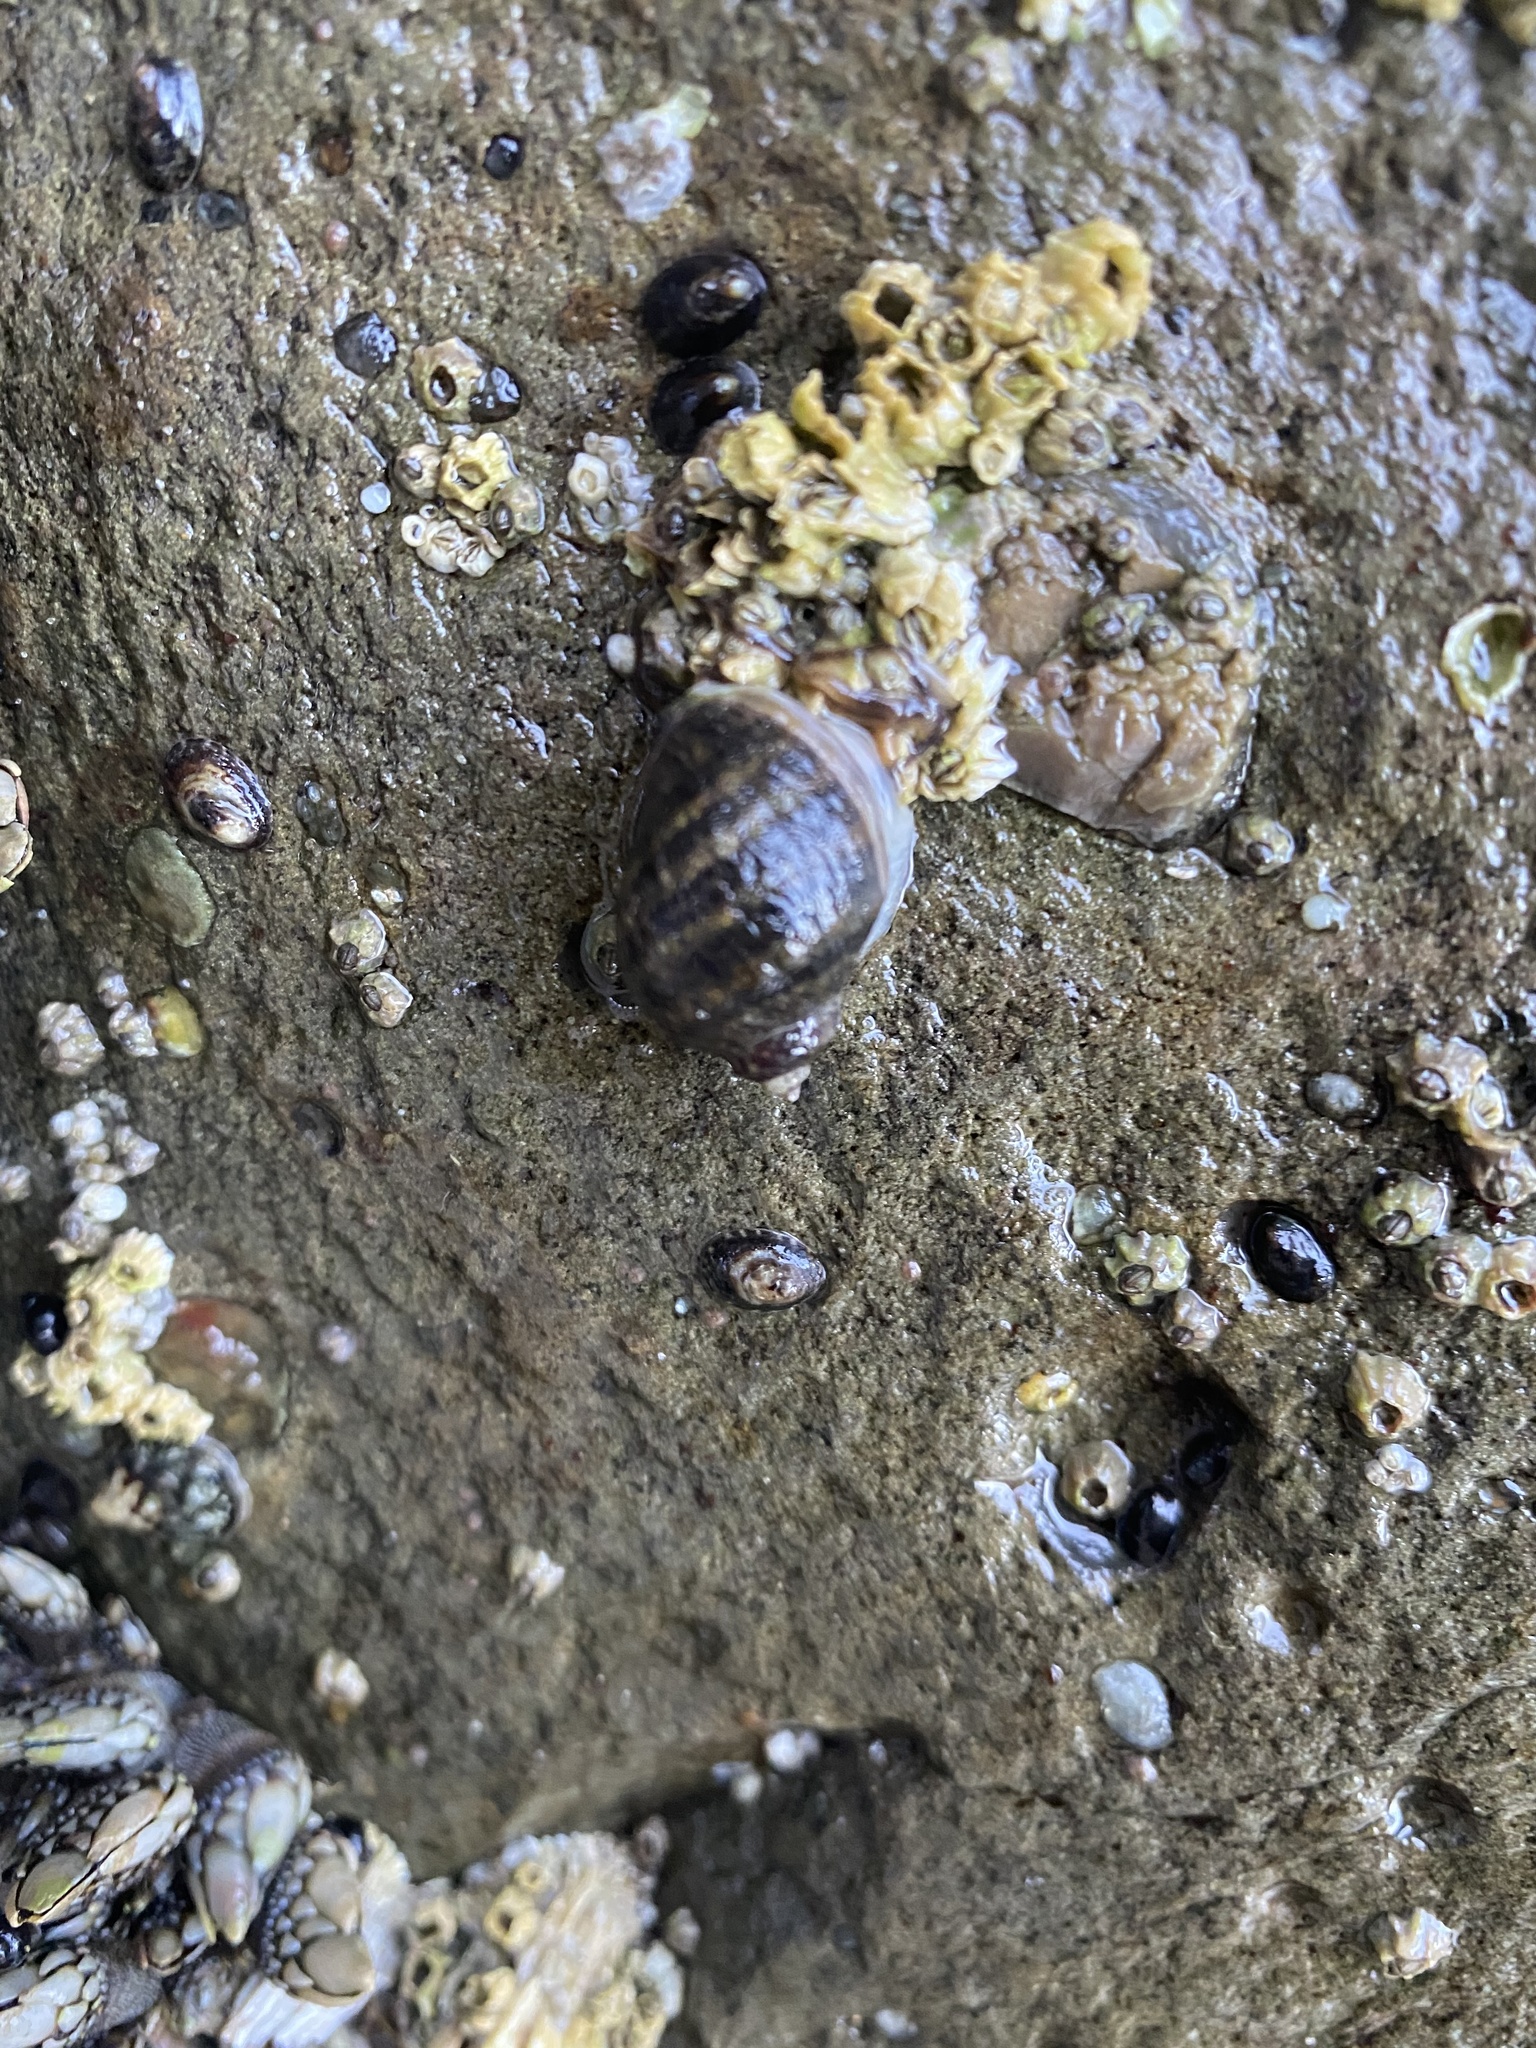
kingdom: Animalia
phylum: Mollusca
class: Gastropoda
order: Neogastropoda
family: Muricidae
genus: Nucella
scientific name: Nucella ostrina
